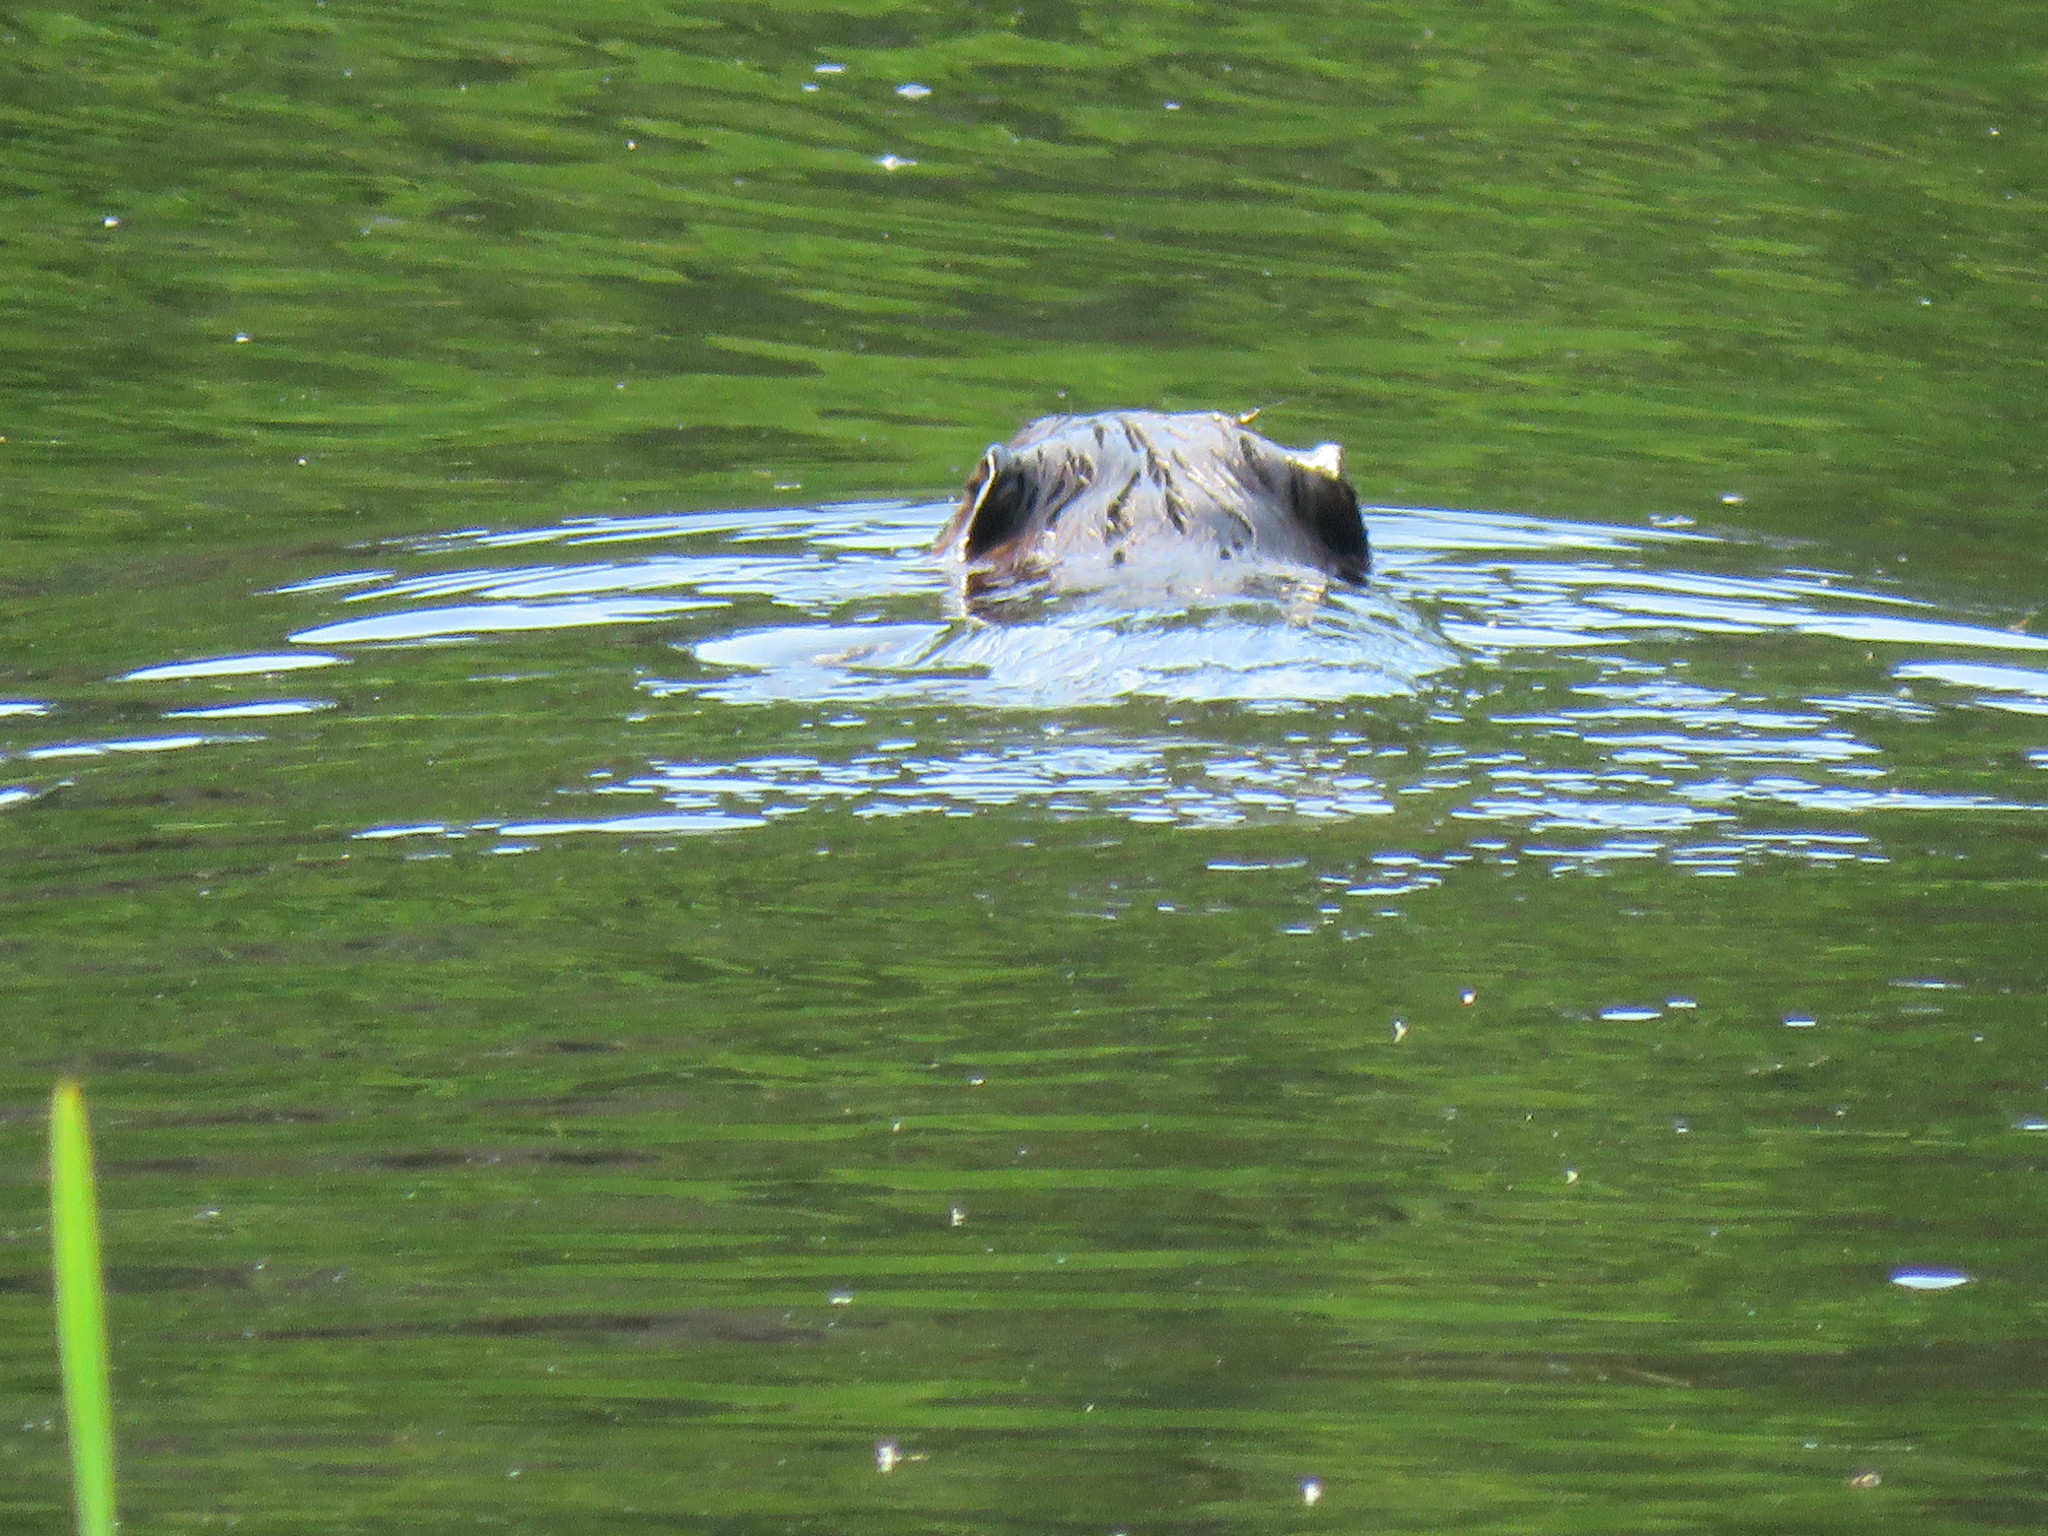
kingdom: Animalia
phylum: Chordata
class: Mammalia
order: Rodentia
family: Cricetidae
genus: Ondatra
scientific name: Ondatra zibethicus
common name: Muskrat
